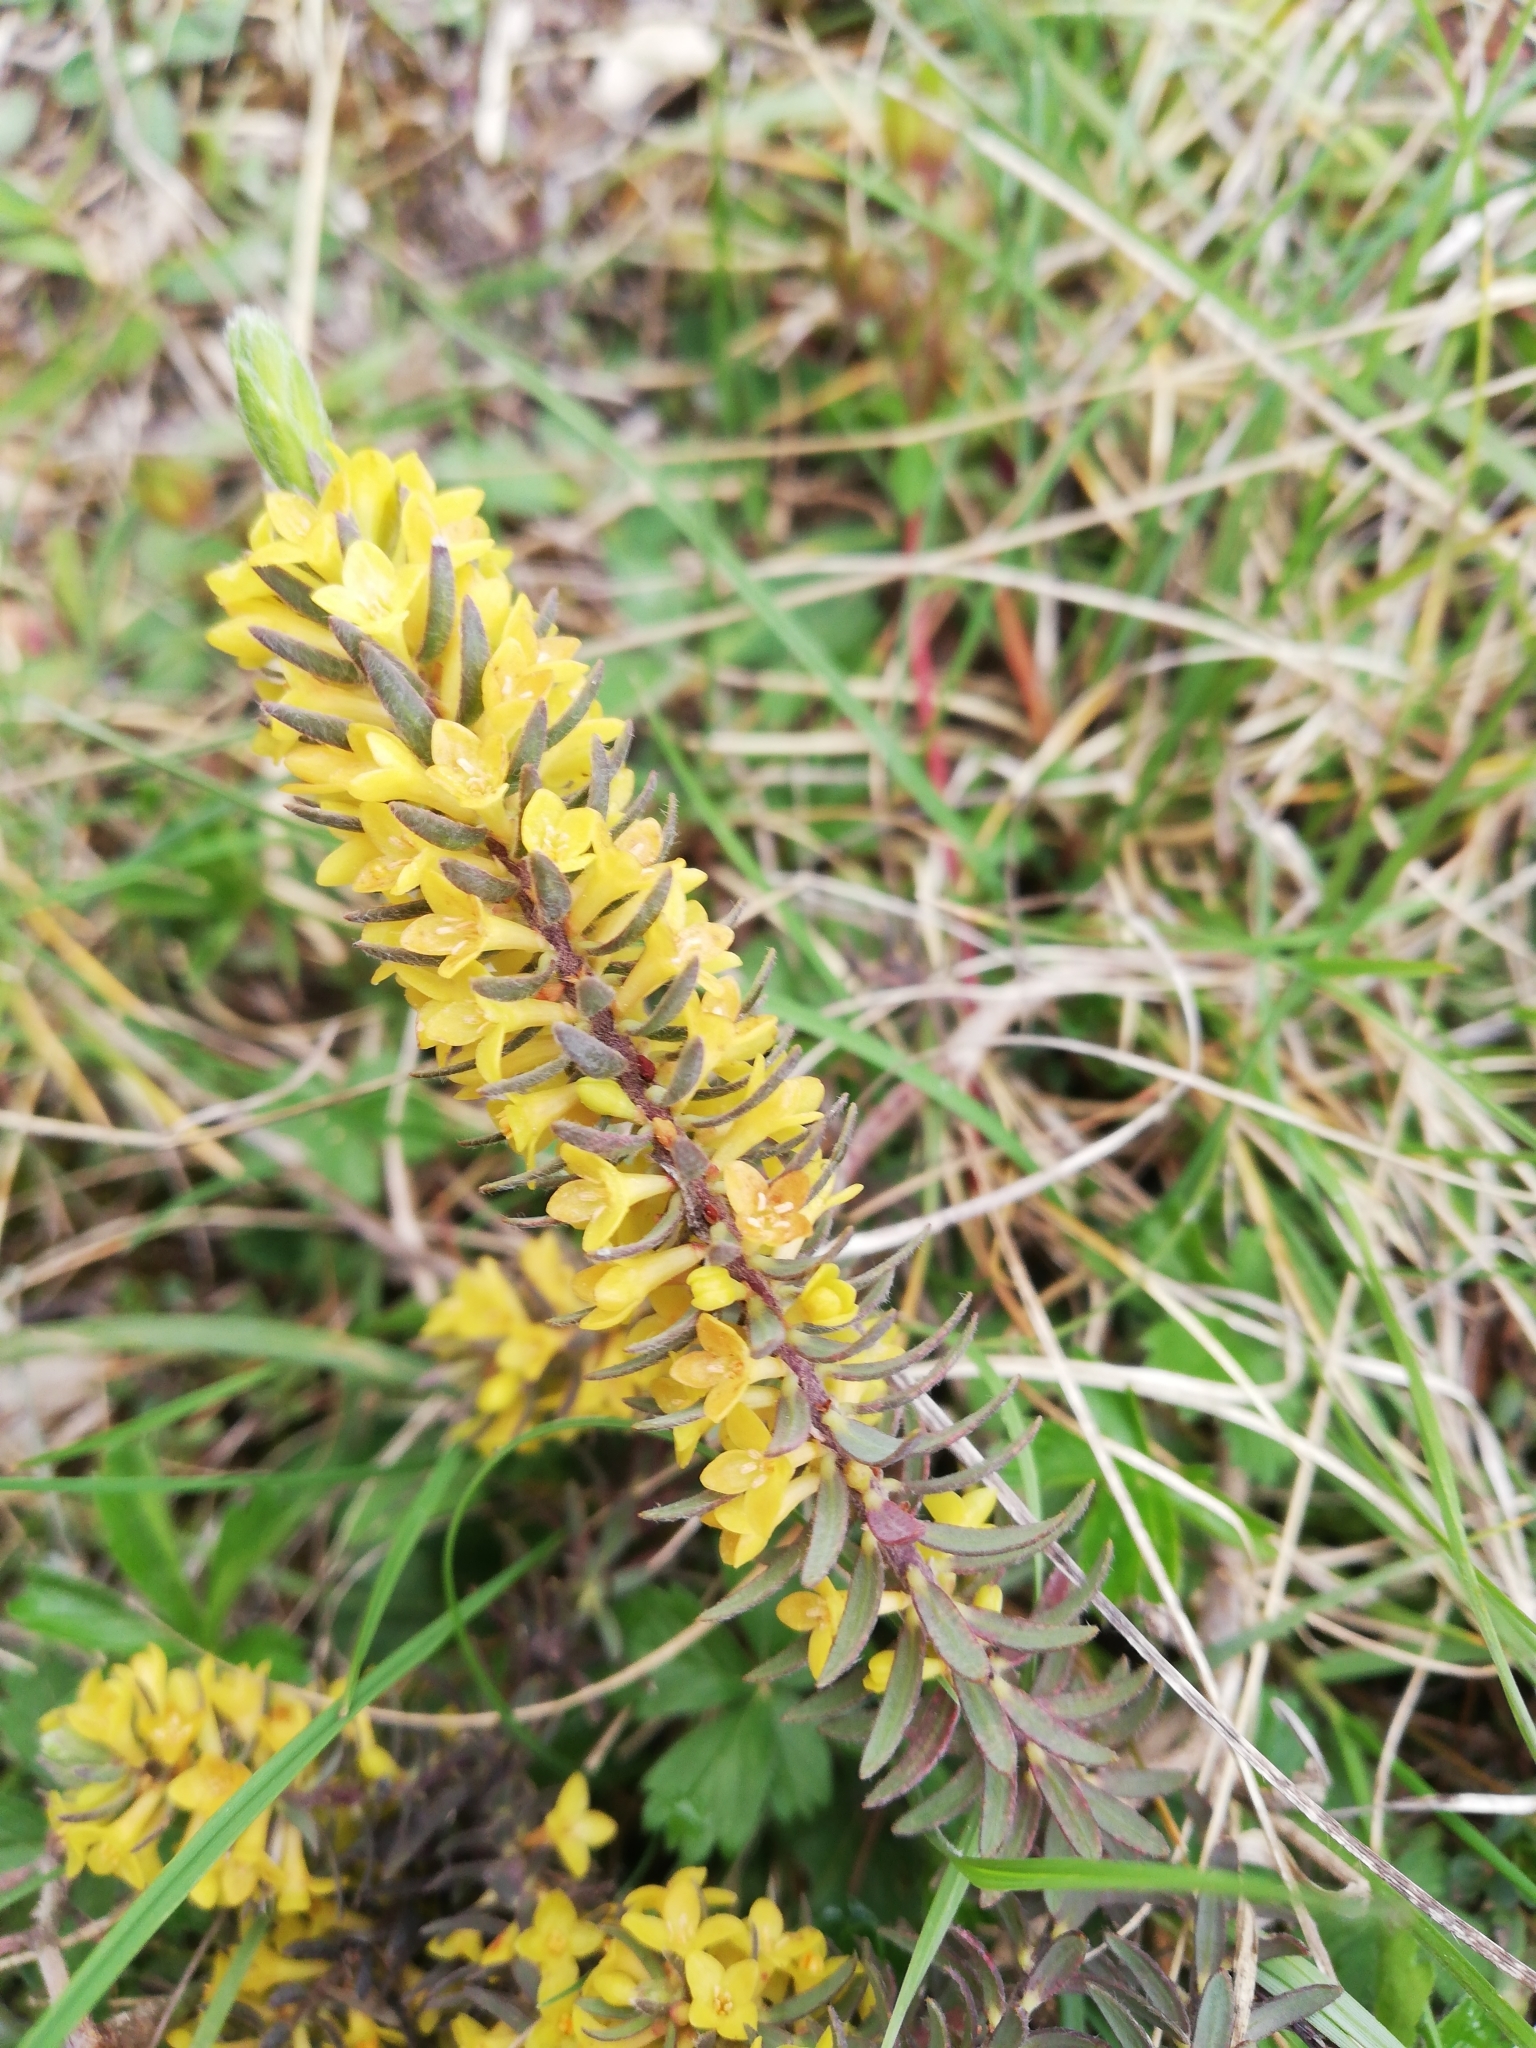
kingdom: Plantae
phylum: Tracheophyta
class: Magnoliopsida
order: Malvales
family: Thymelaeaceae
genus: Thymelaea
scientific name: Thymelaea ruizii
